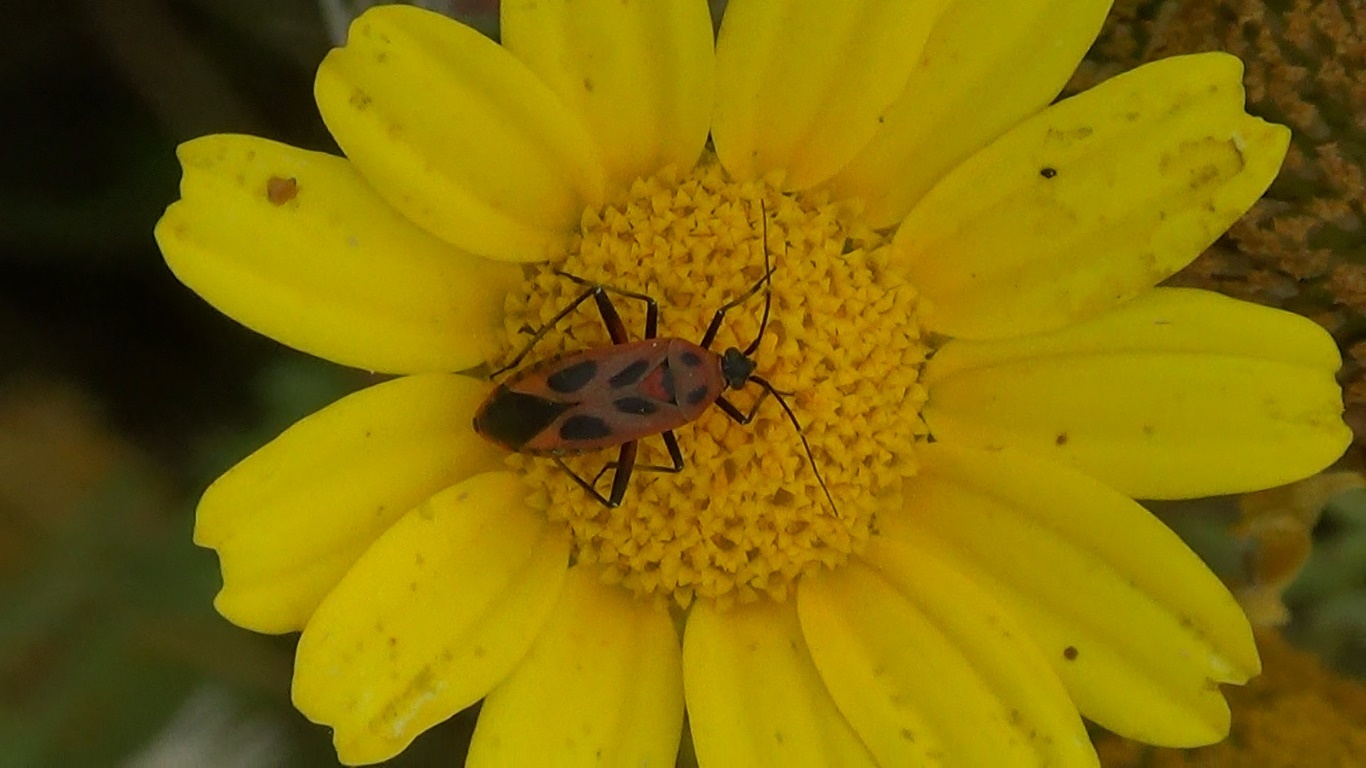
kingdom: Animalia
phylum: Arthropoda
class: Insecta
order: Hemiptera
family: Miridae
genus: Calocoris
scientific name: Calocoris nemoralis
